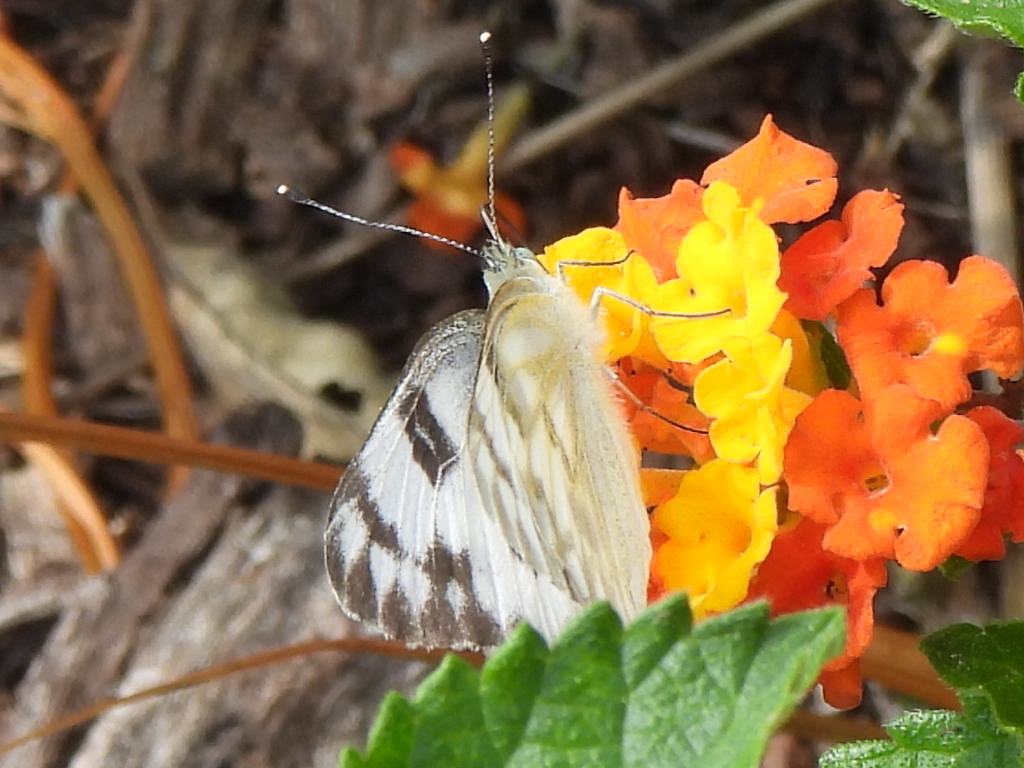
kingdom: Animalia
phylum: Arthropoda
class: Insecta
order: Lepidoptera
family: Pieridae
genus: Pontia
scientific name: Pontia protodice
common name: Checkered white
